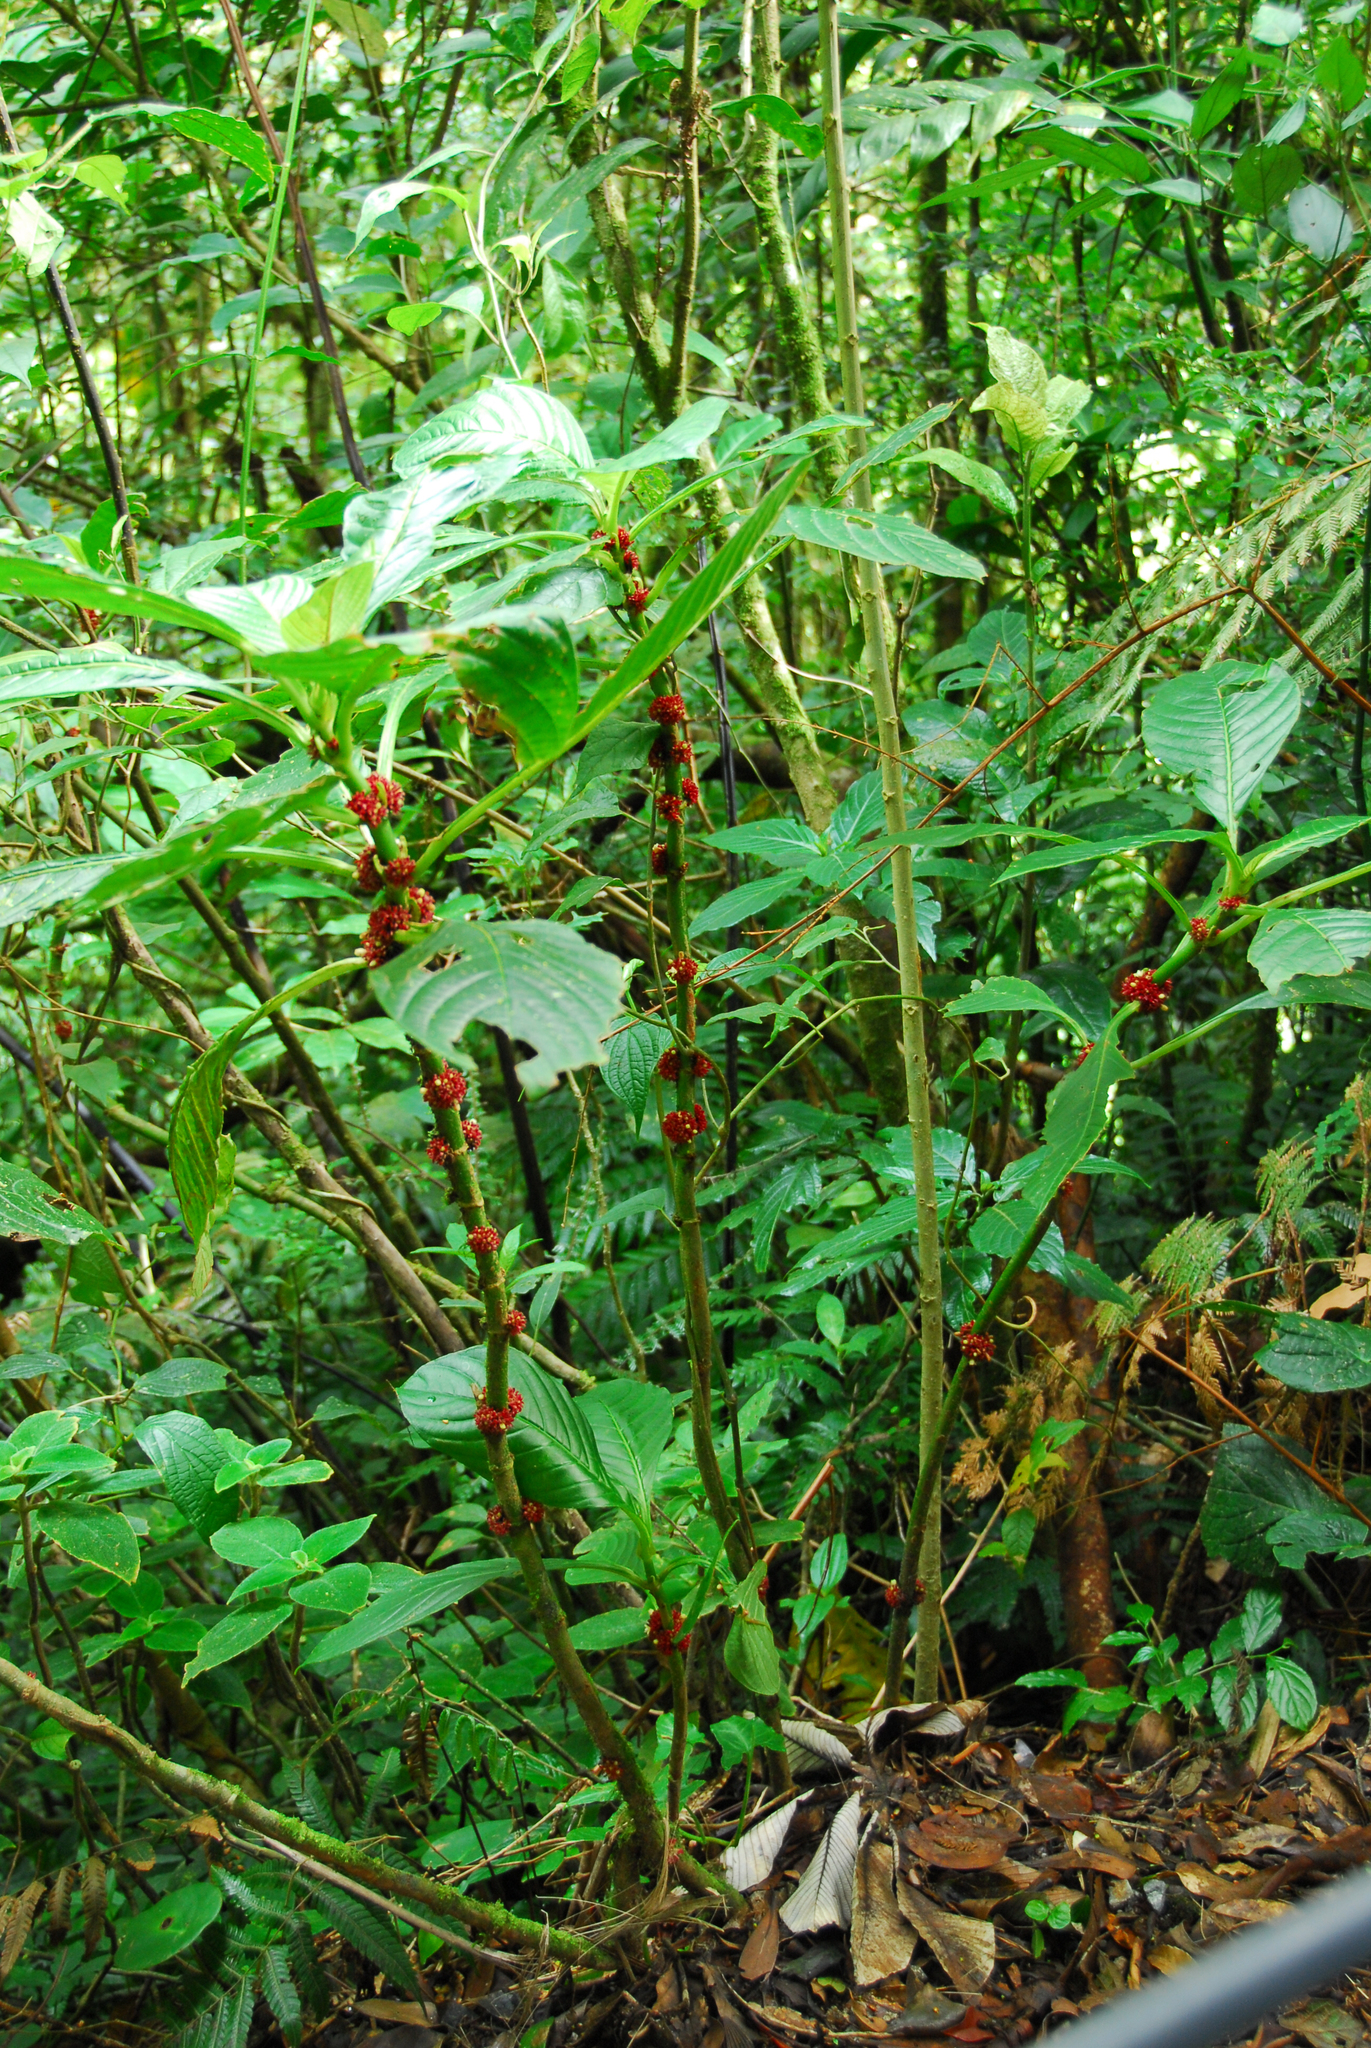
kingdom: Plantae
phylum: Tracheophyta
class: Magnoliopsida
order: Gentianales
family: Rubiaceae
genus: Hoffmannia
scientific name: Hoffmannia congesta
